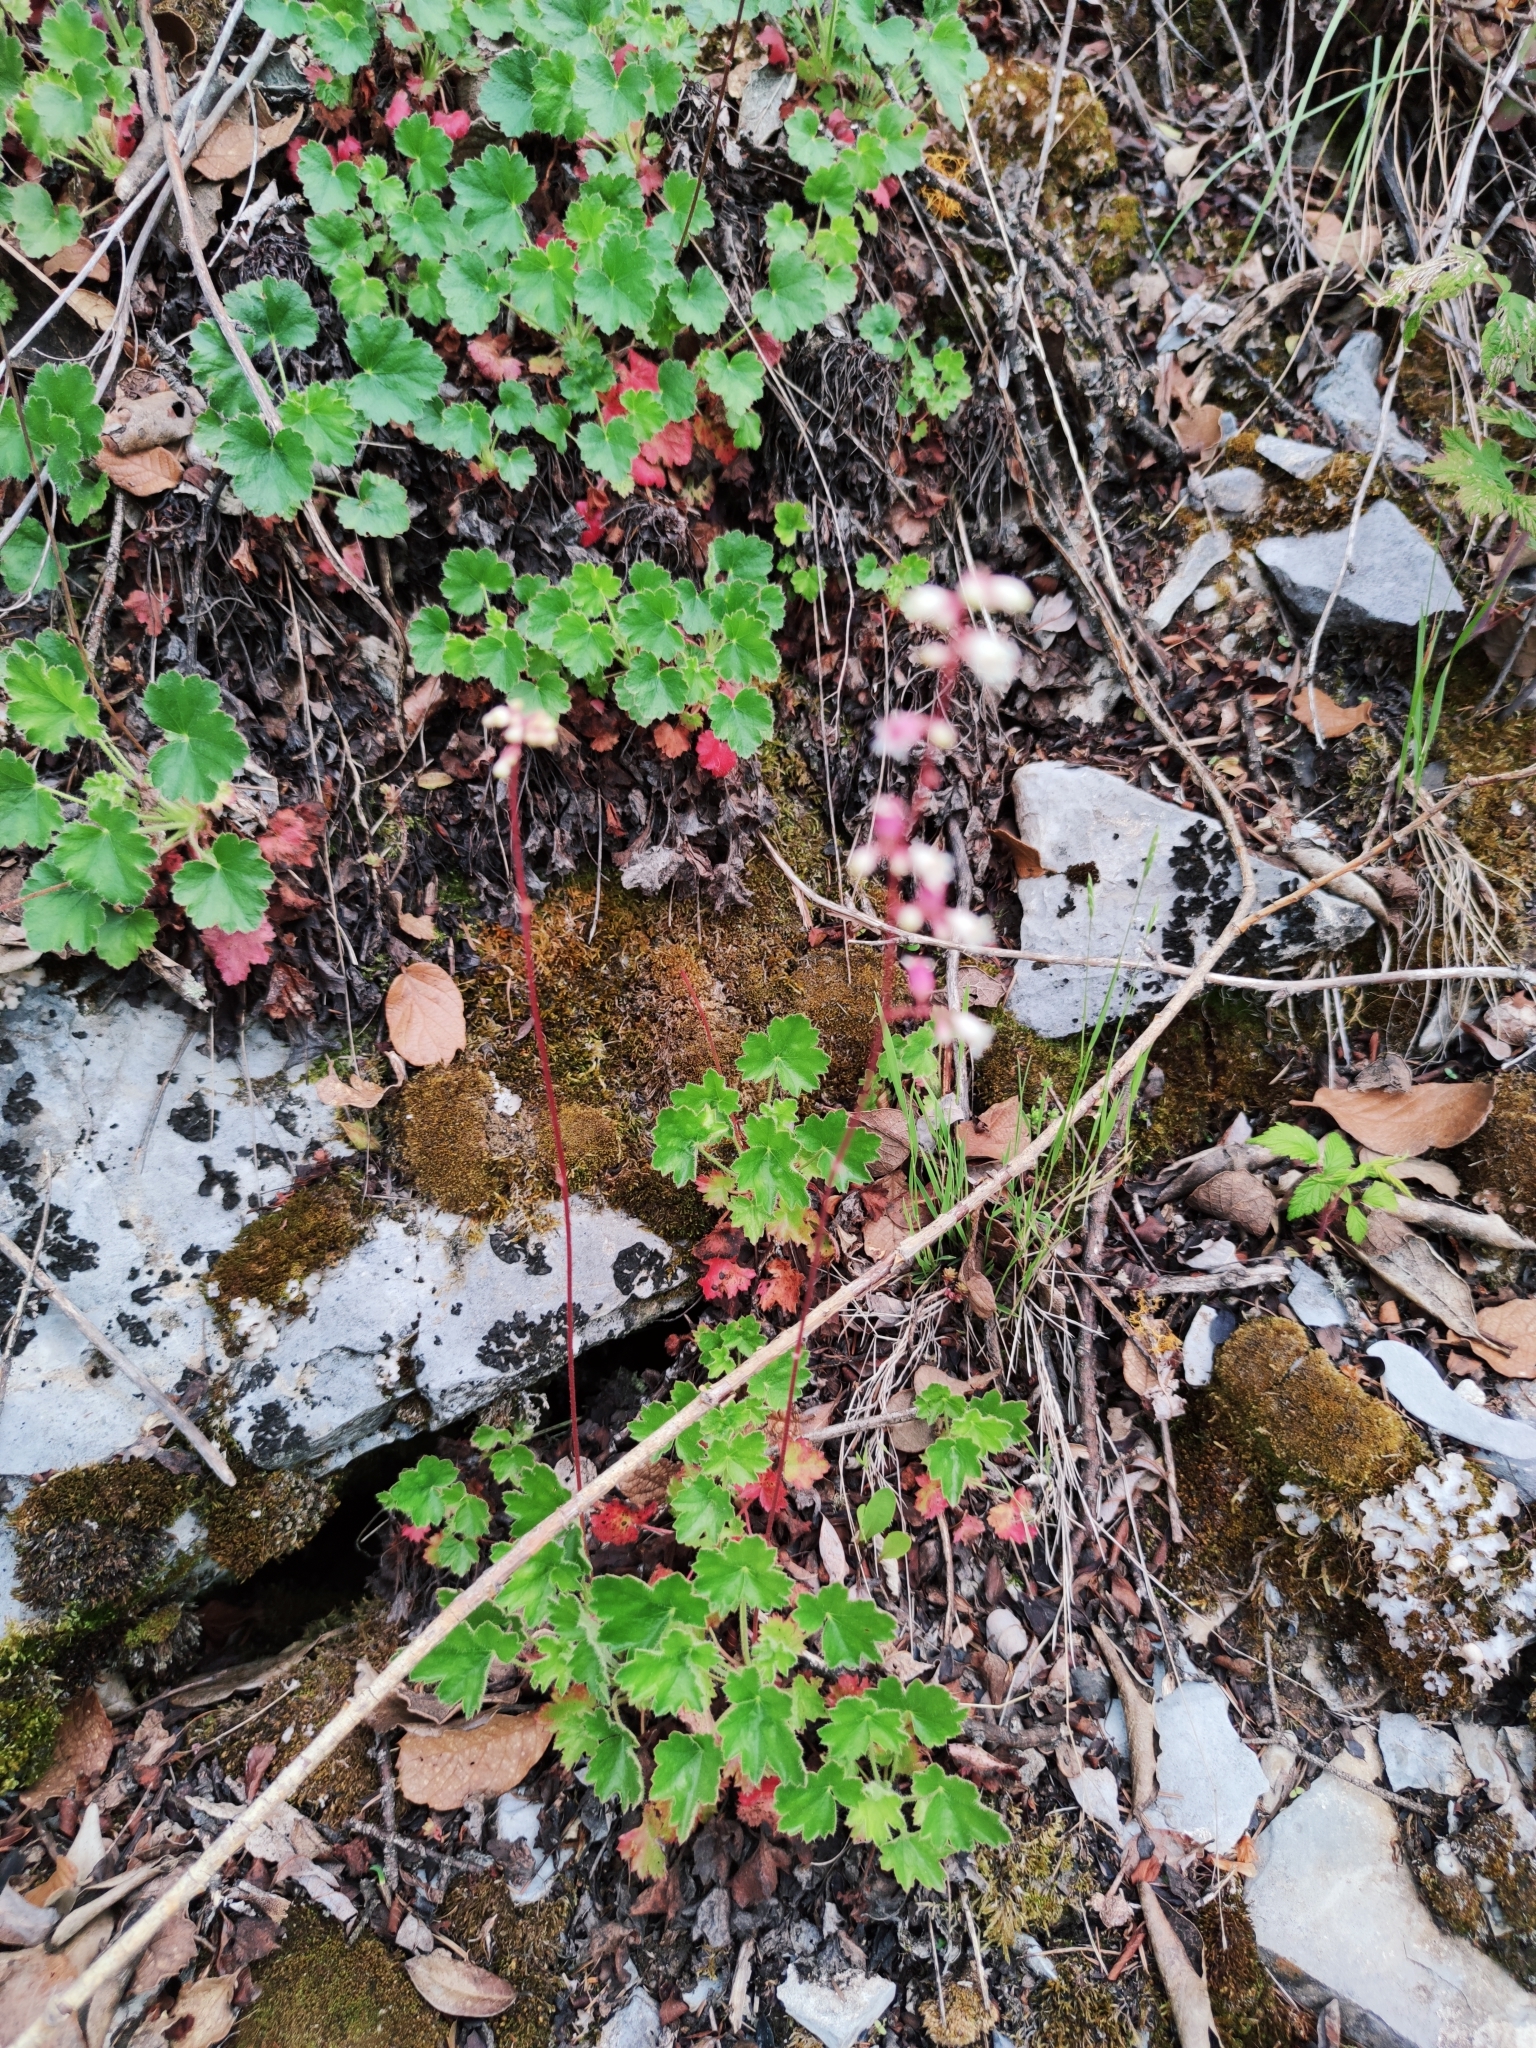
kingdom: Plantae
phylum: Tracheophyta
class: Magnoliopsida
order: Saxifragales
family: Saxifragaceae
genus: Heuchera
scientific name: Heuchera mexicana
